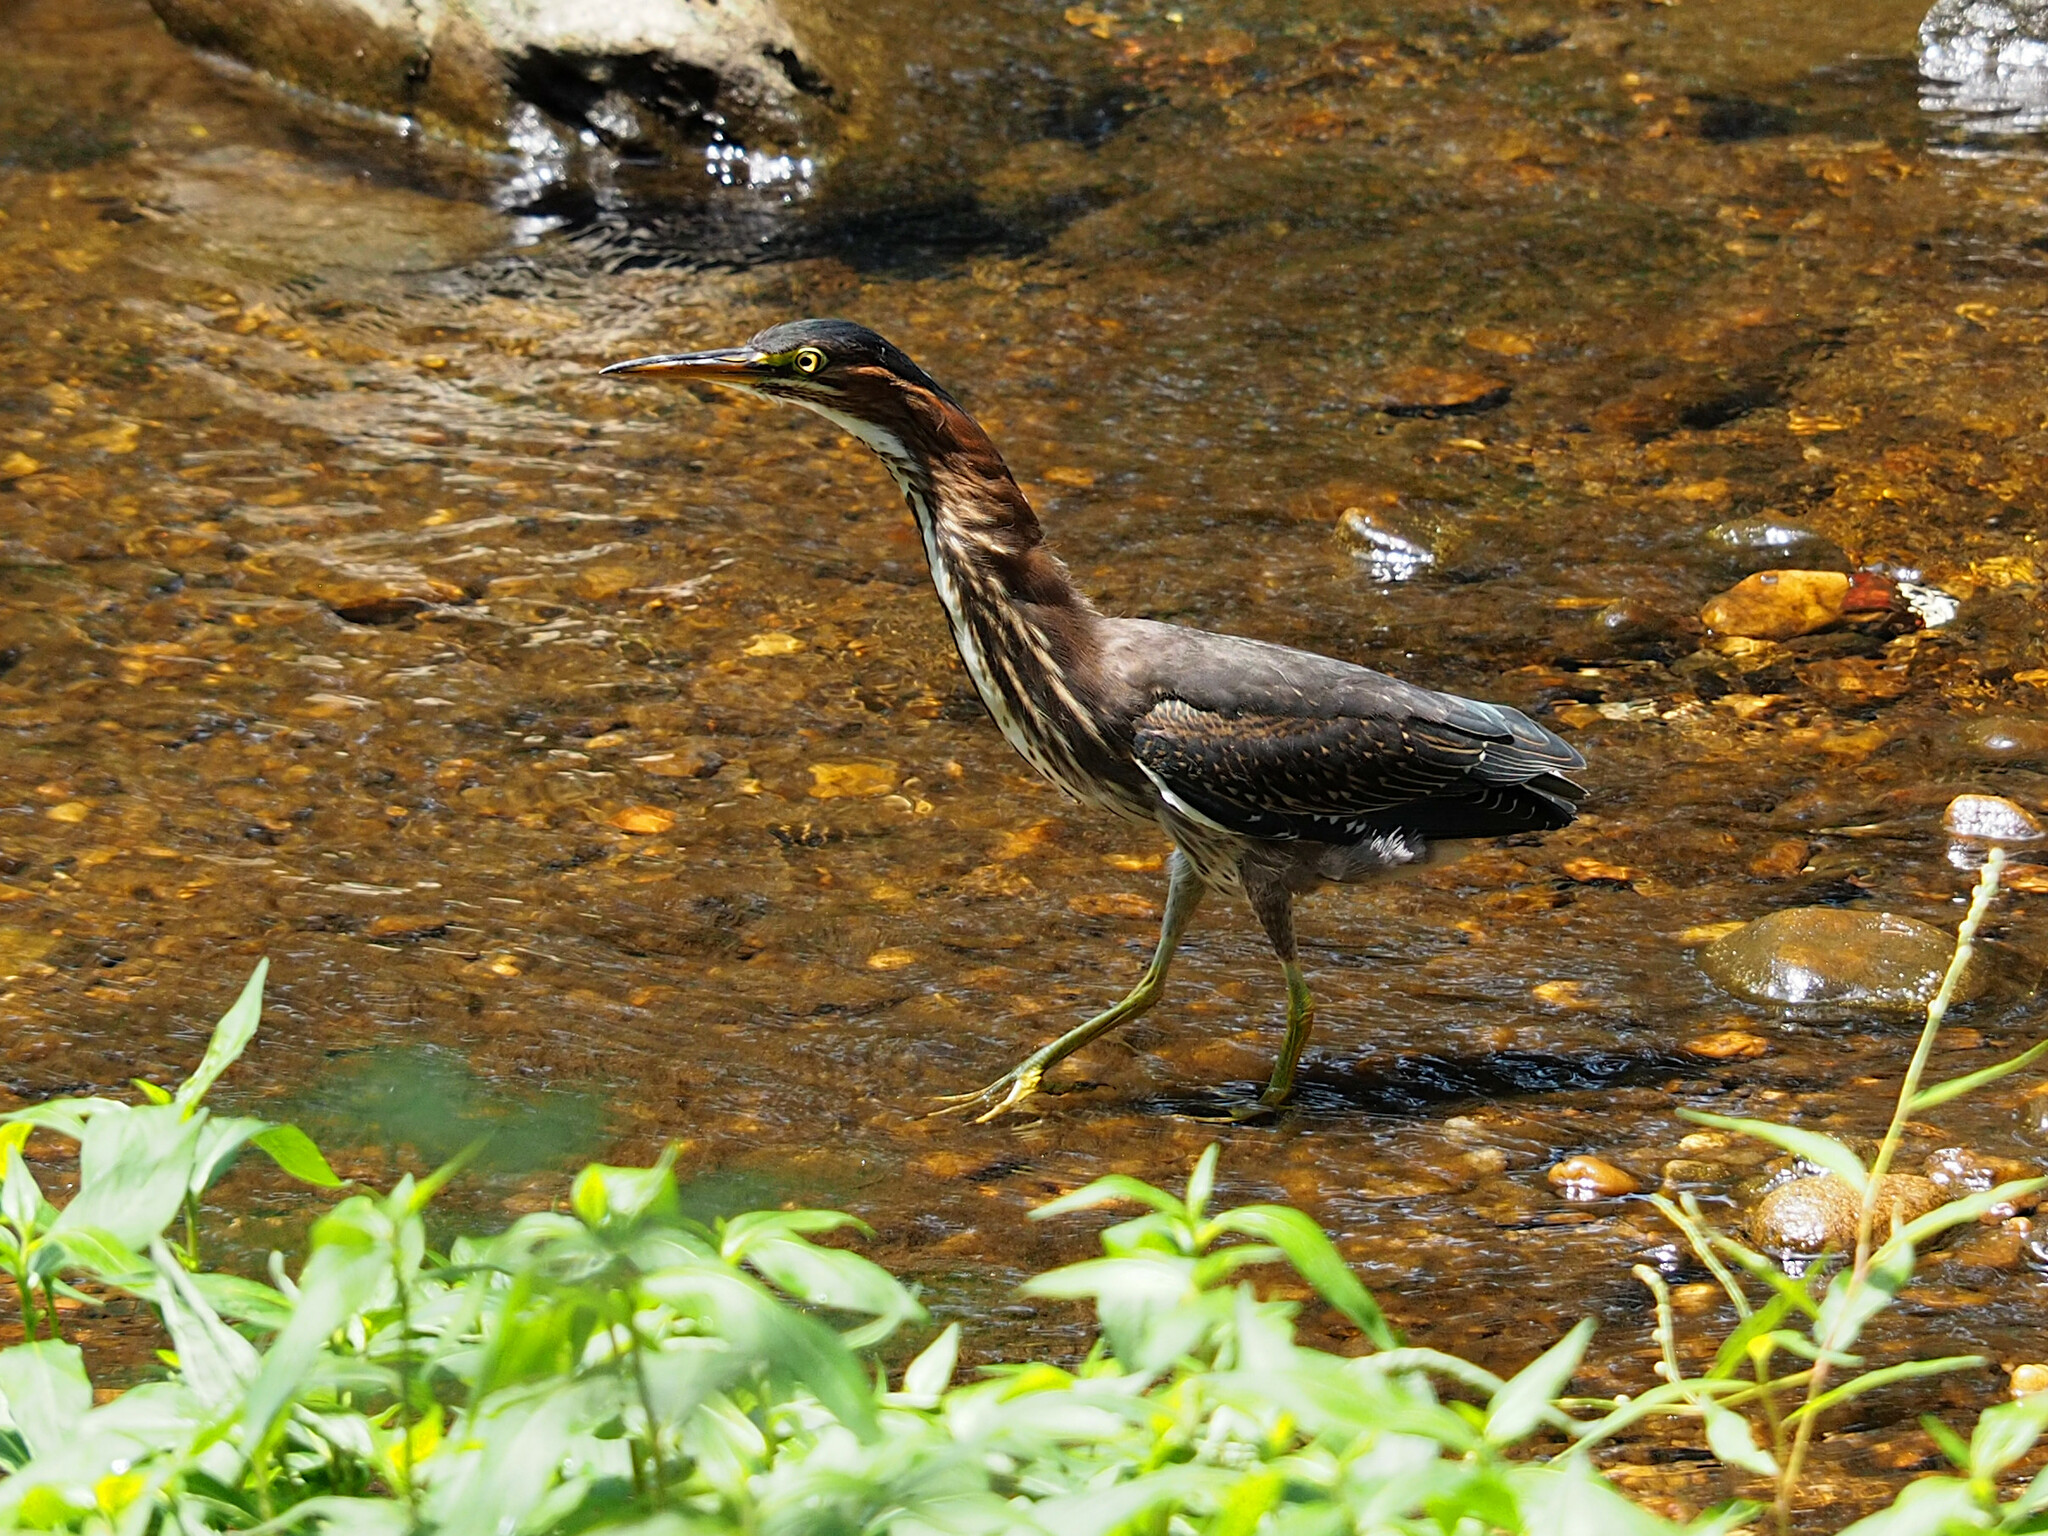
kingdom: Animalia
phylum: Chordata
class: Aves
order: Pelecaniformes
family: Ardeidae
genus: Butorides
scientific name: Butorides virescens
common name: Green heron
